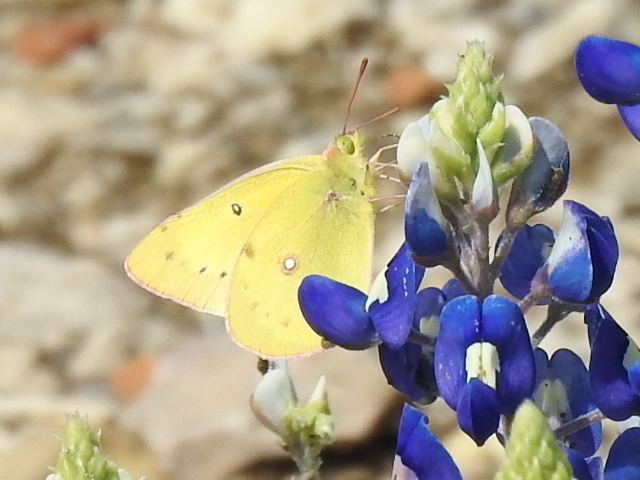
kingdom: Animalia
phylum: Arthropoda
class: Insecta
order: Lepidoptera
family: Pieridae
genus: Colias
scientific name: Colias eurytheme
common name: Alfalfa butterfly
